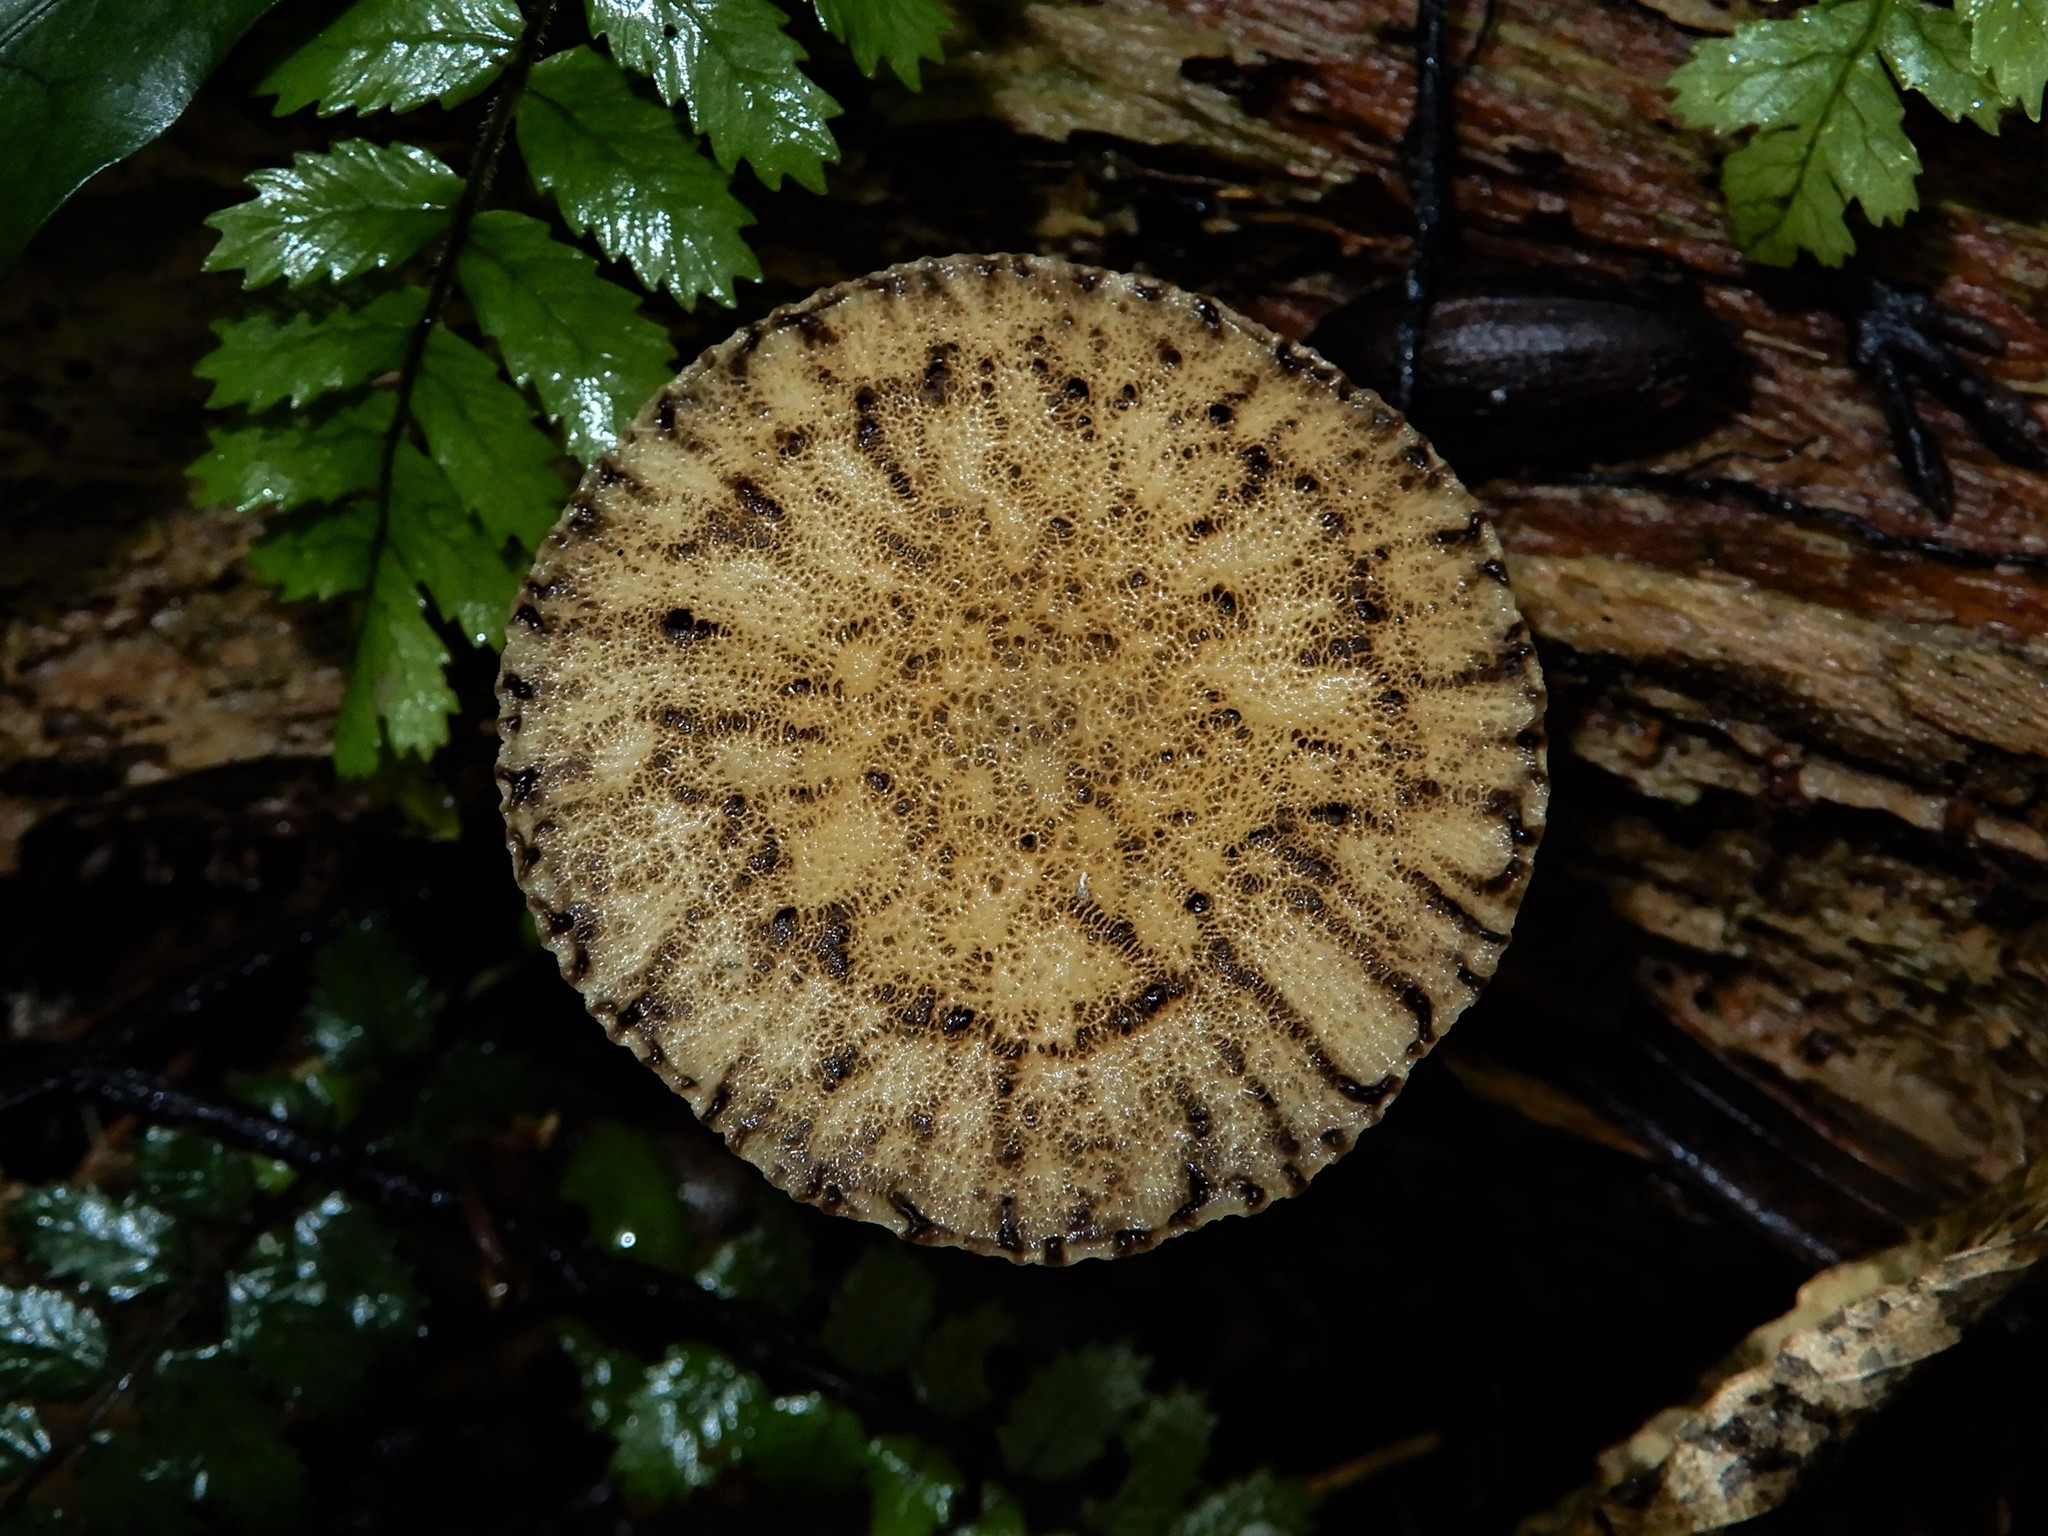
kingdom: Fungi
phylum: Basidiomycota
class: Agaricomycetes
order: Agaricales
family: Pluteaceae
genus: Pluteus
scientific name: Pluteus readiarum
